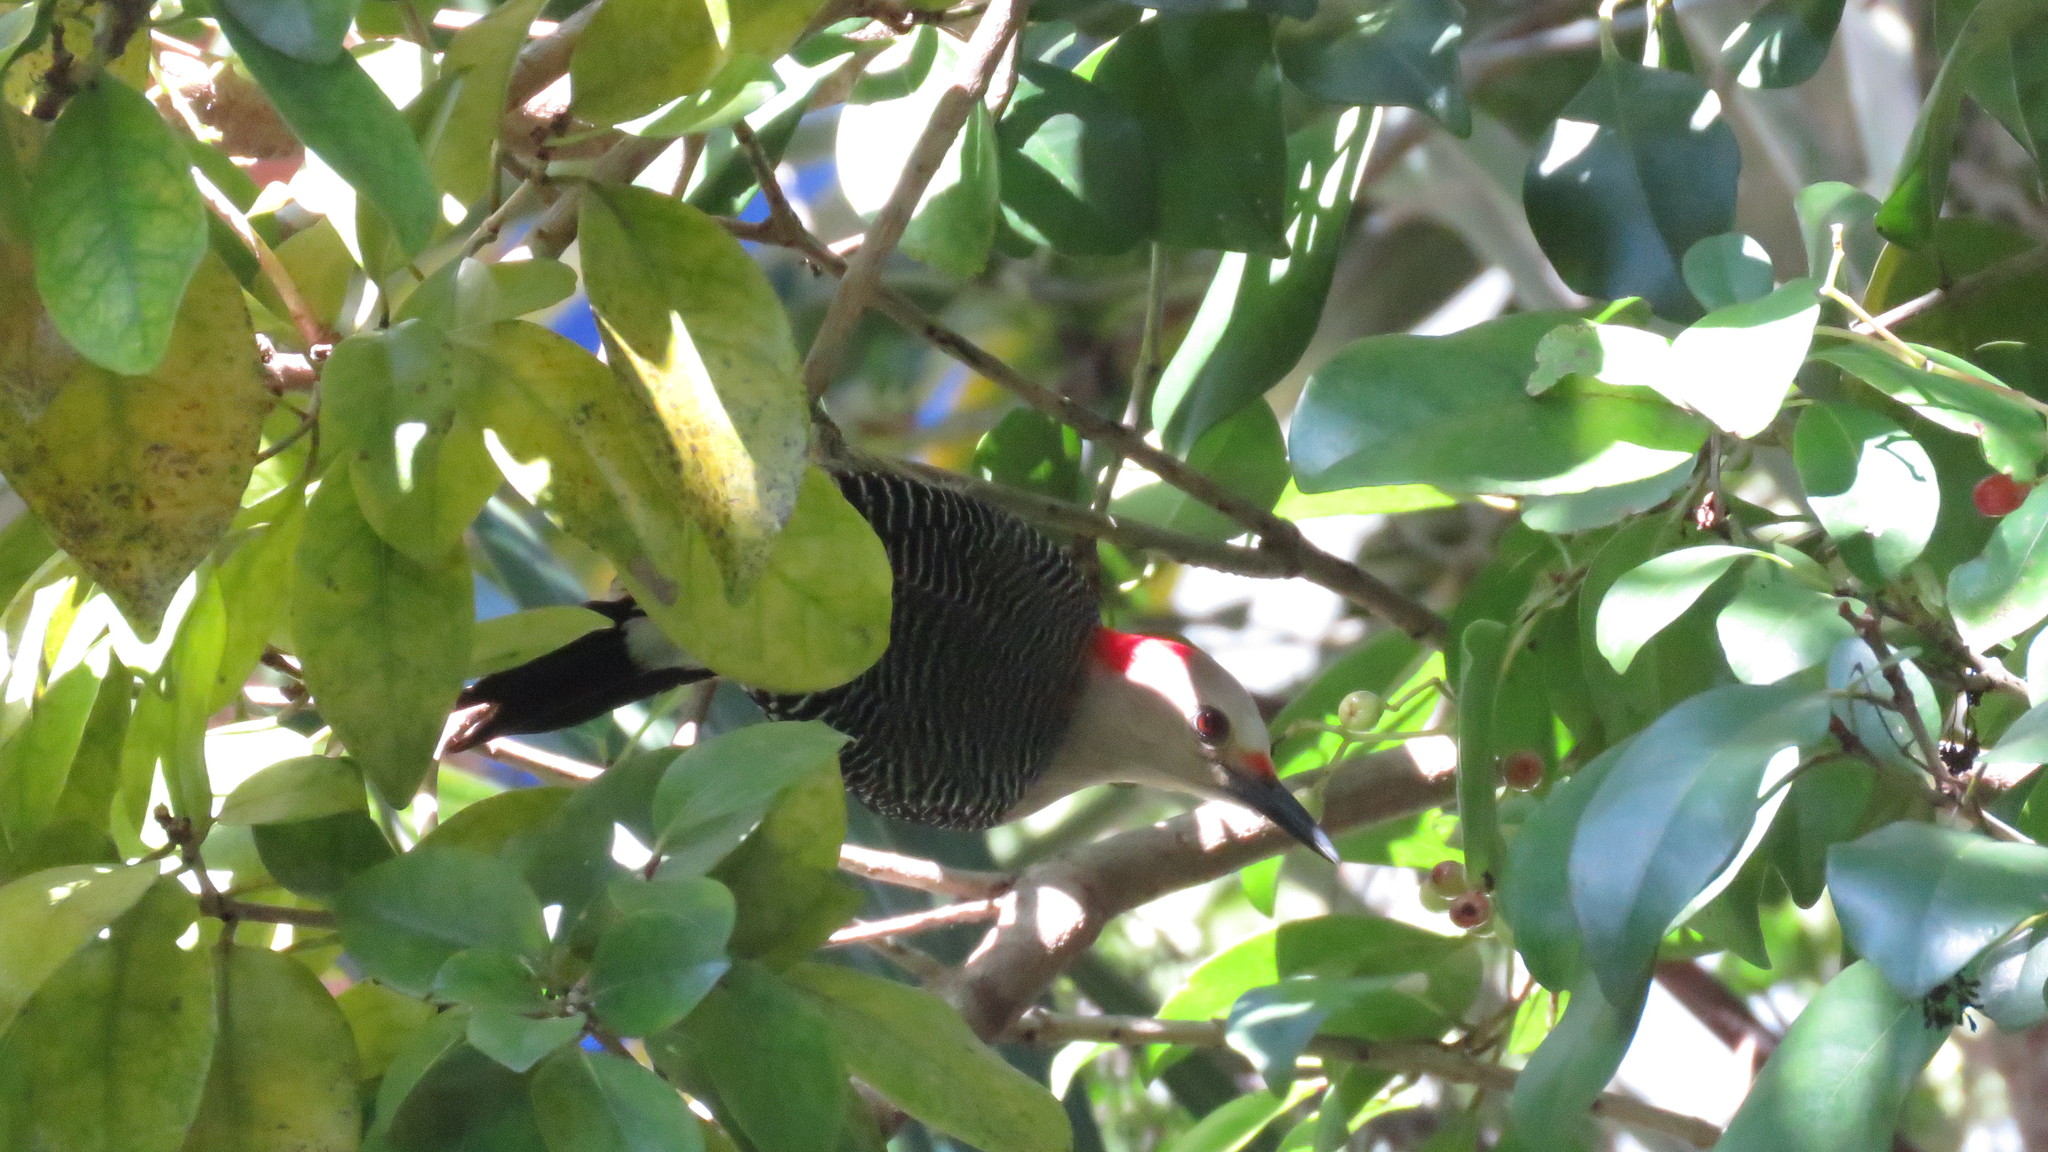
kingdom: Animalia
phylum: Chordata
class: Aves
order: Piciformes
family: Picidae
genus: Melanerpes
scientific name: Melanerpes aurifrons
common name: Golden-fronted woodpecker
